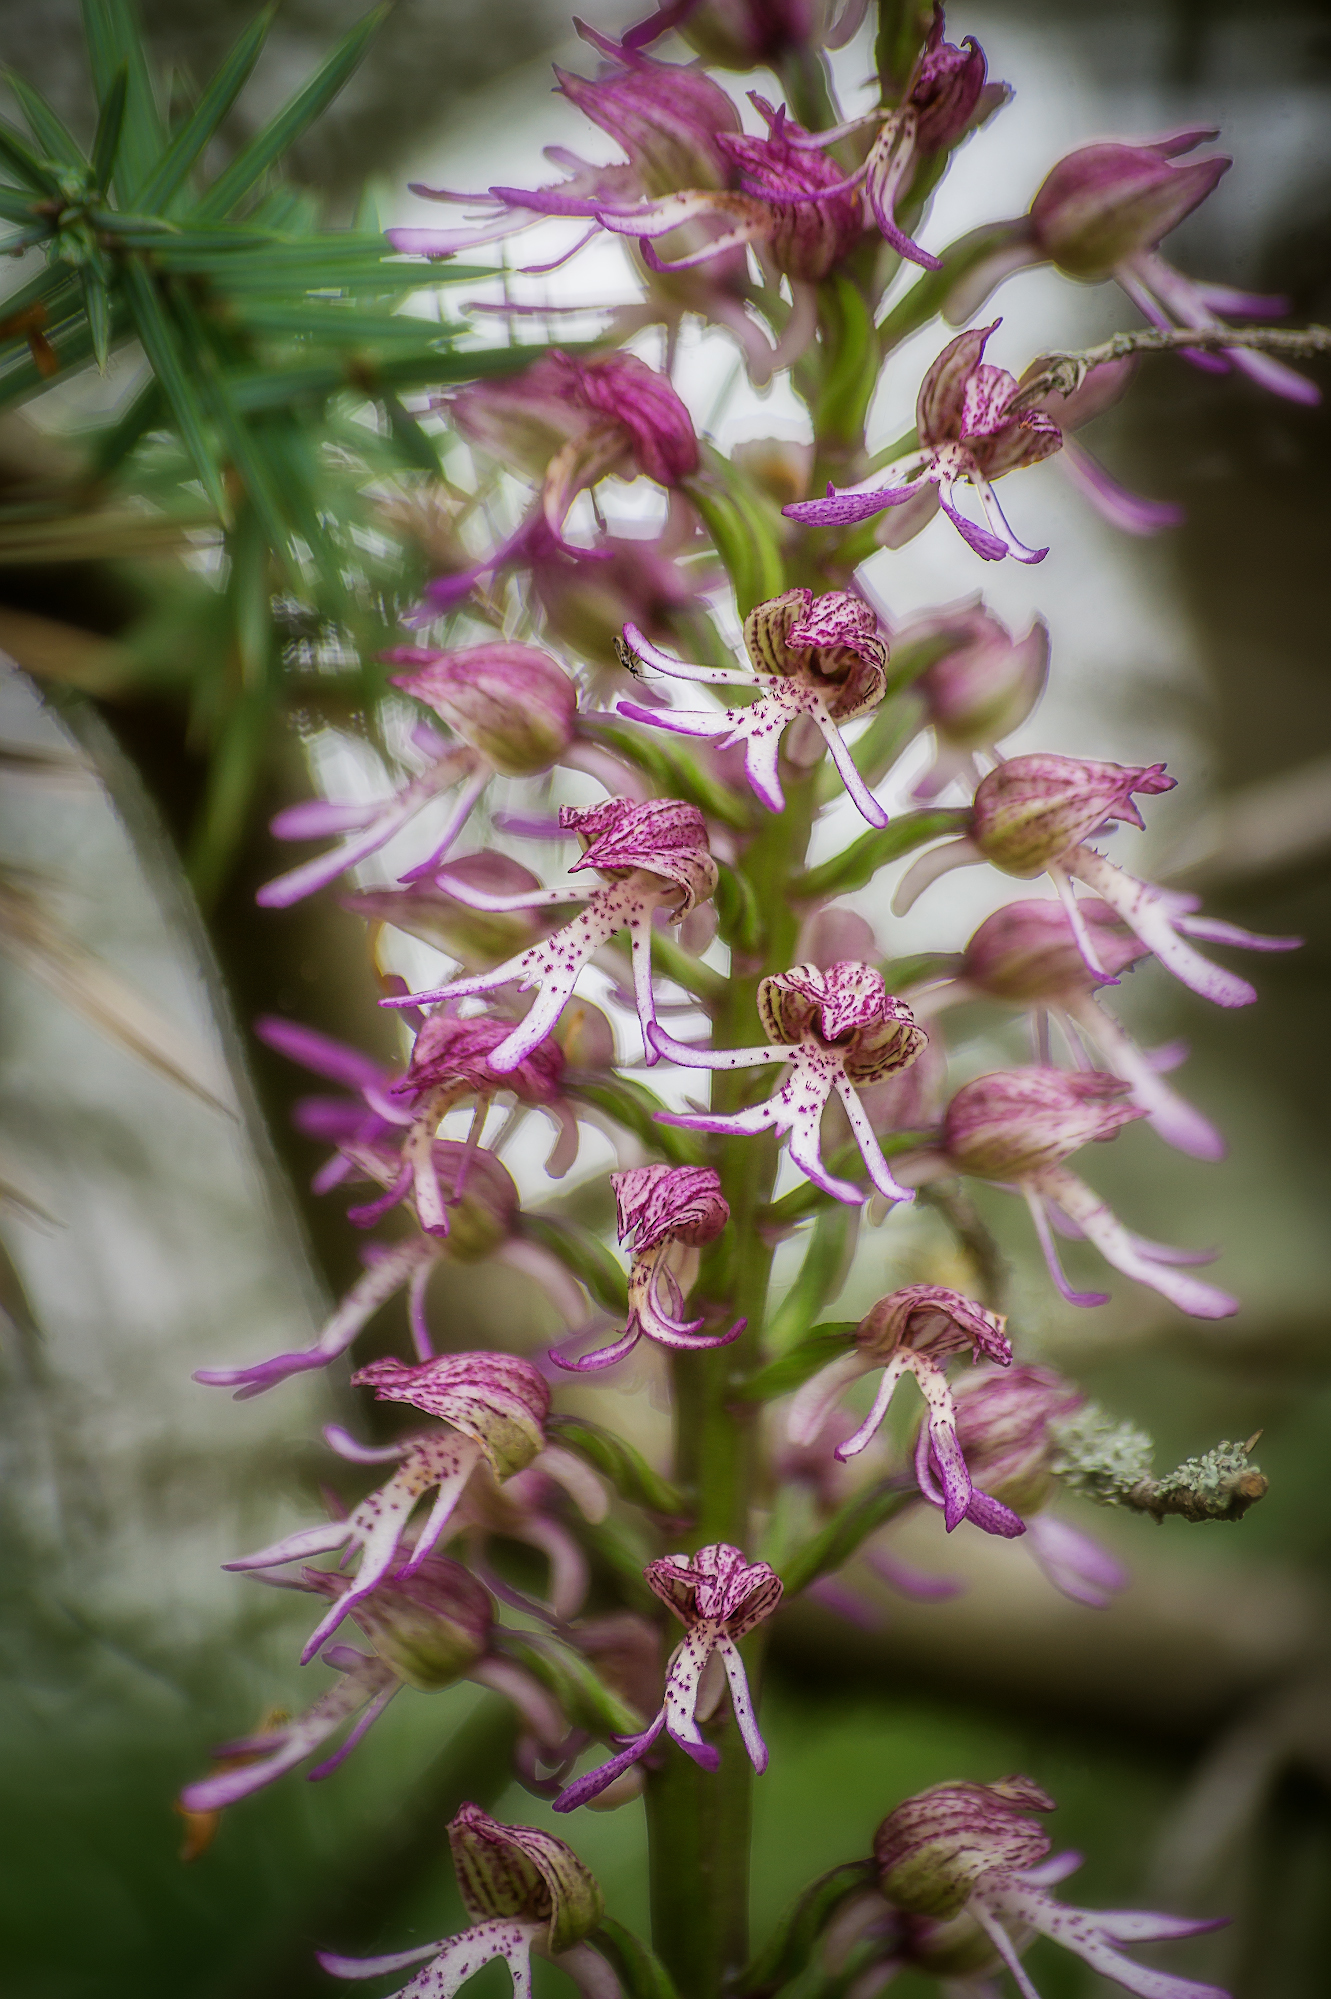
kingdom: Plantae
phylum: Tracheophyta
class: Liliopsida
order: Asparagales
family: Orchidaceae
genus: Orchis
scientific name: Orchis angusticruris
